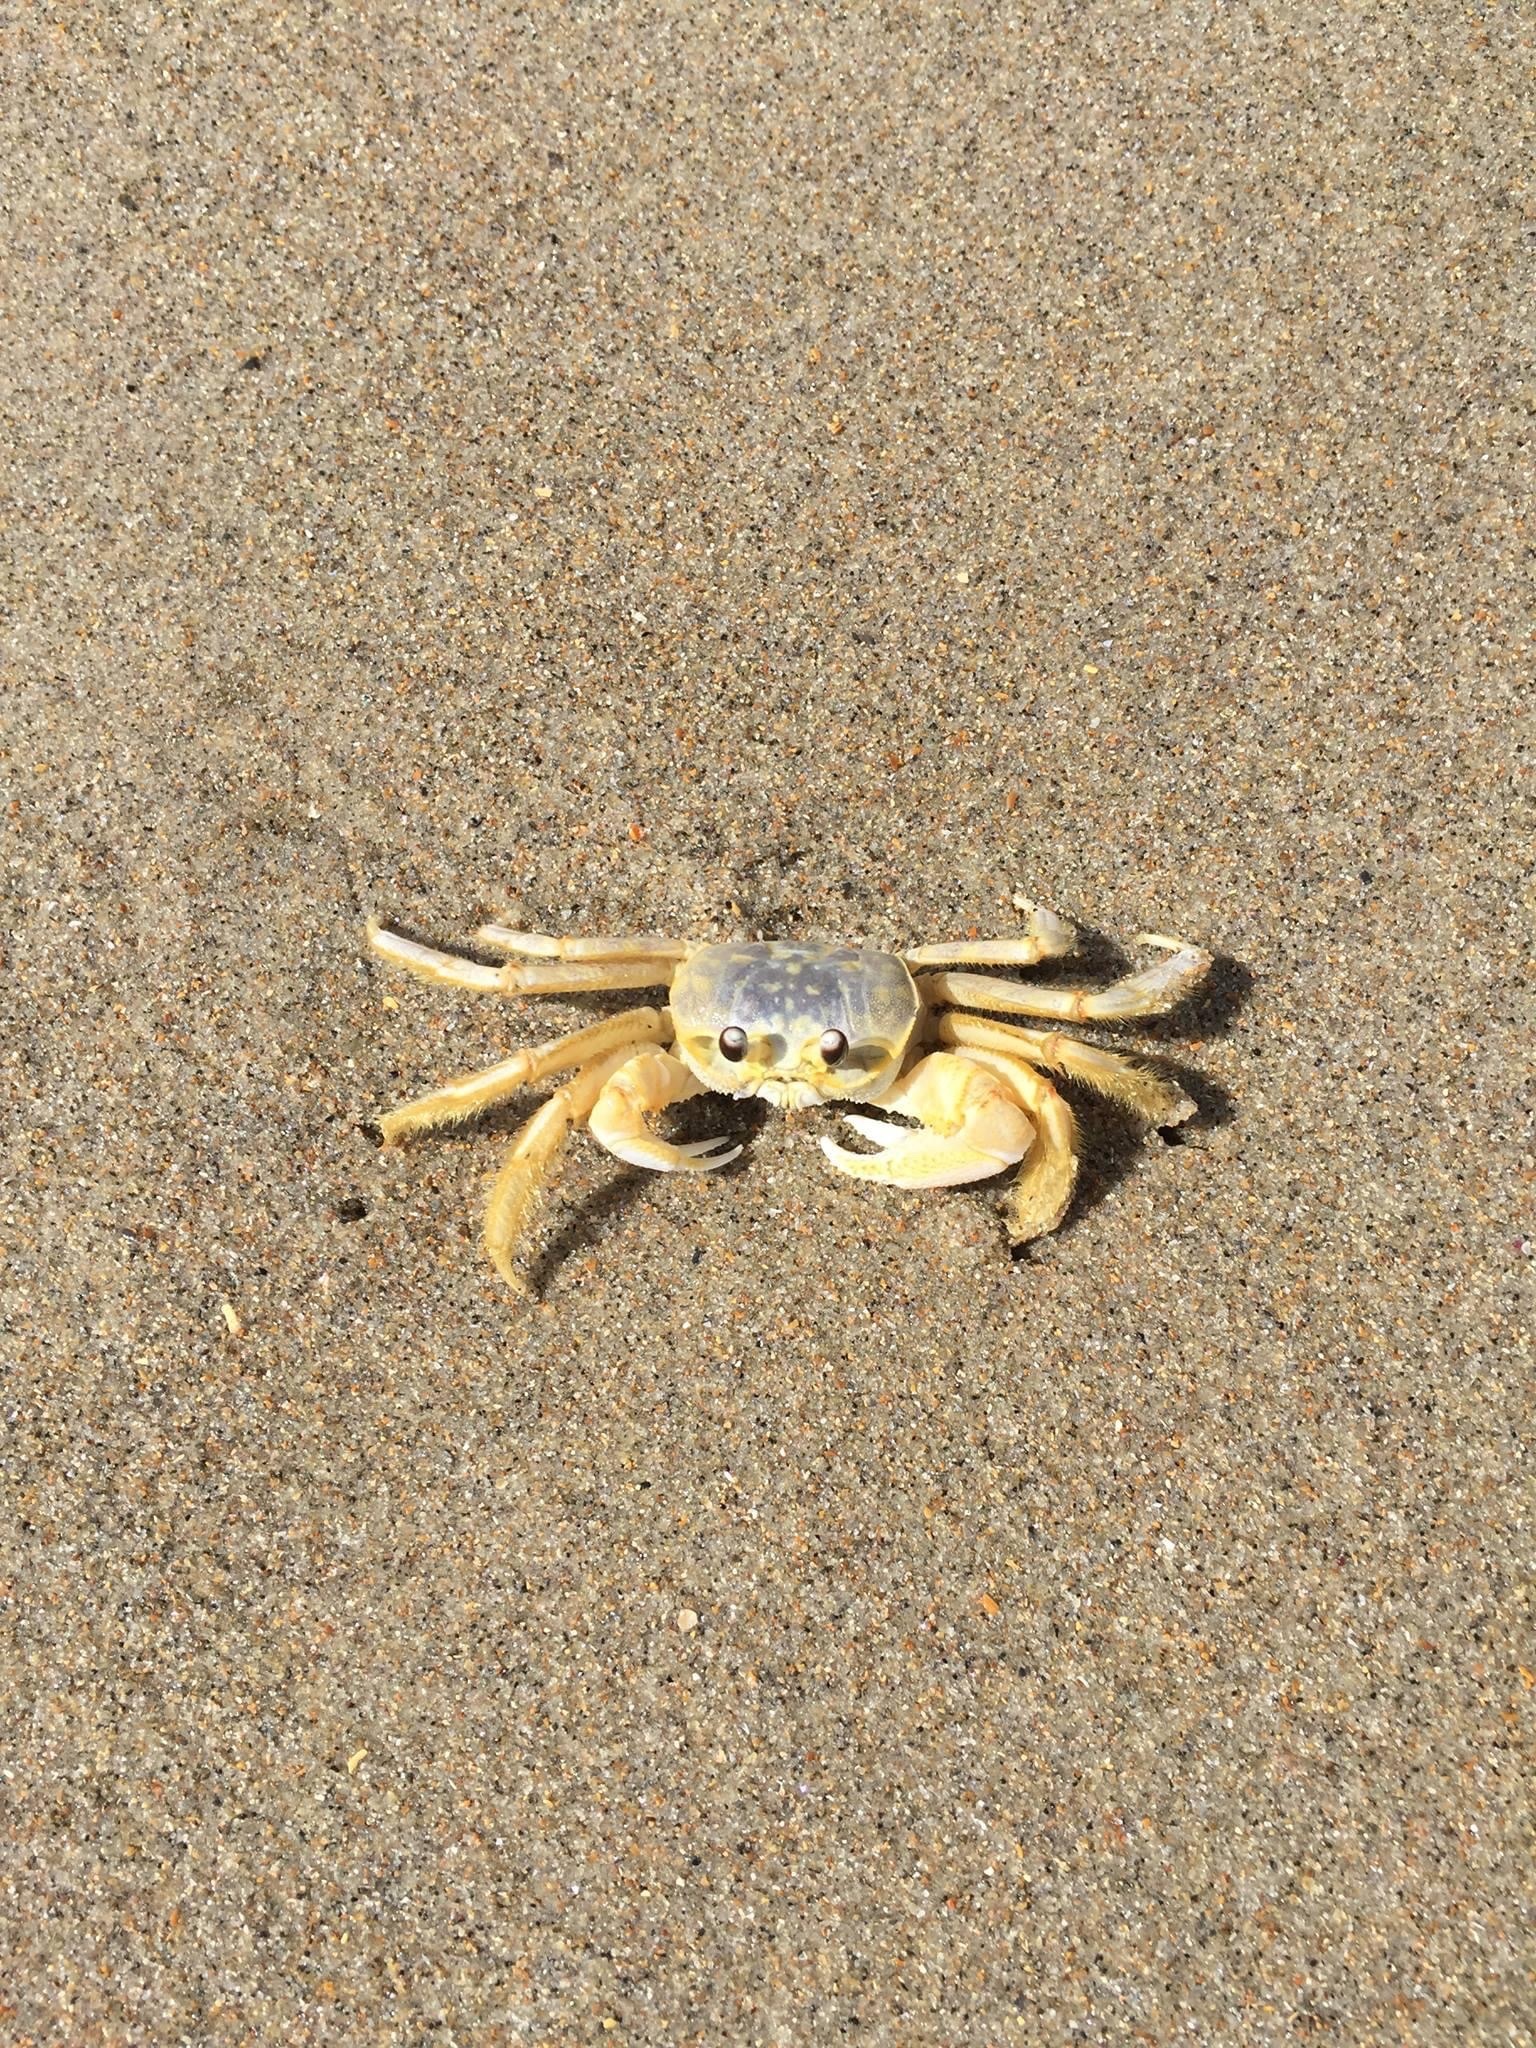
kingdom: Animalia
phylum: Arthropoda
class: Malacostraca
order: Decapoda
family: Ocypodidae
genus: Ocypode
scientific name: Ocypode quadrata
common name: Ghost crab
